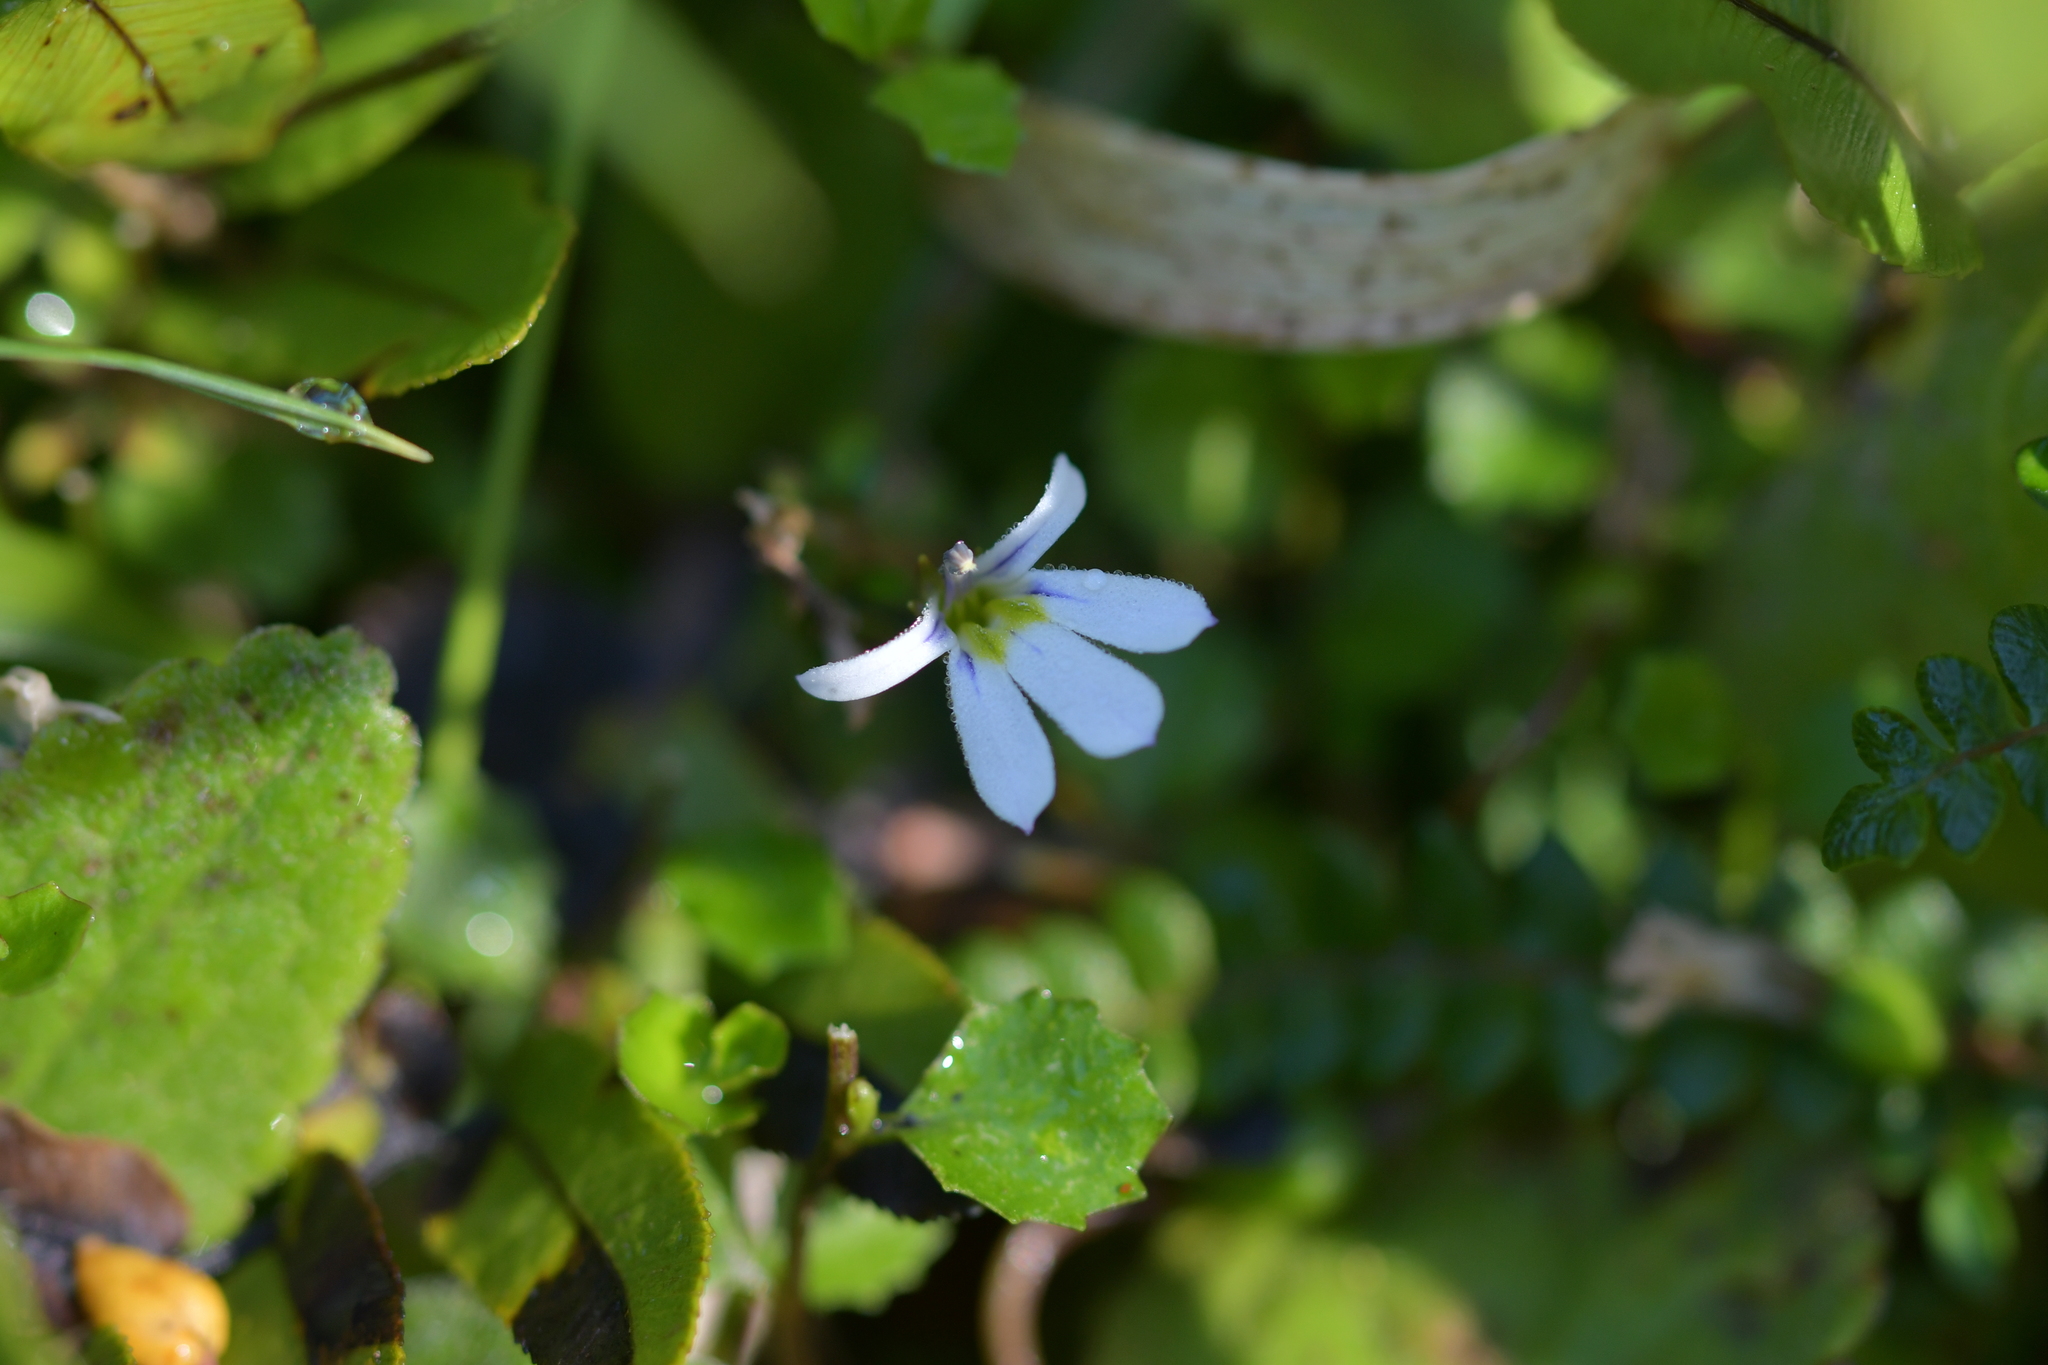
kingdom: Plantae
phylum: Tracheophyta
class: Magnoliopsida
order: Asterales
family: Campanulaceae
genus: Lobelia
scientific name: Lobelia angulata
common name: Lawn lobelia
